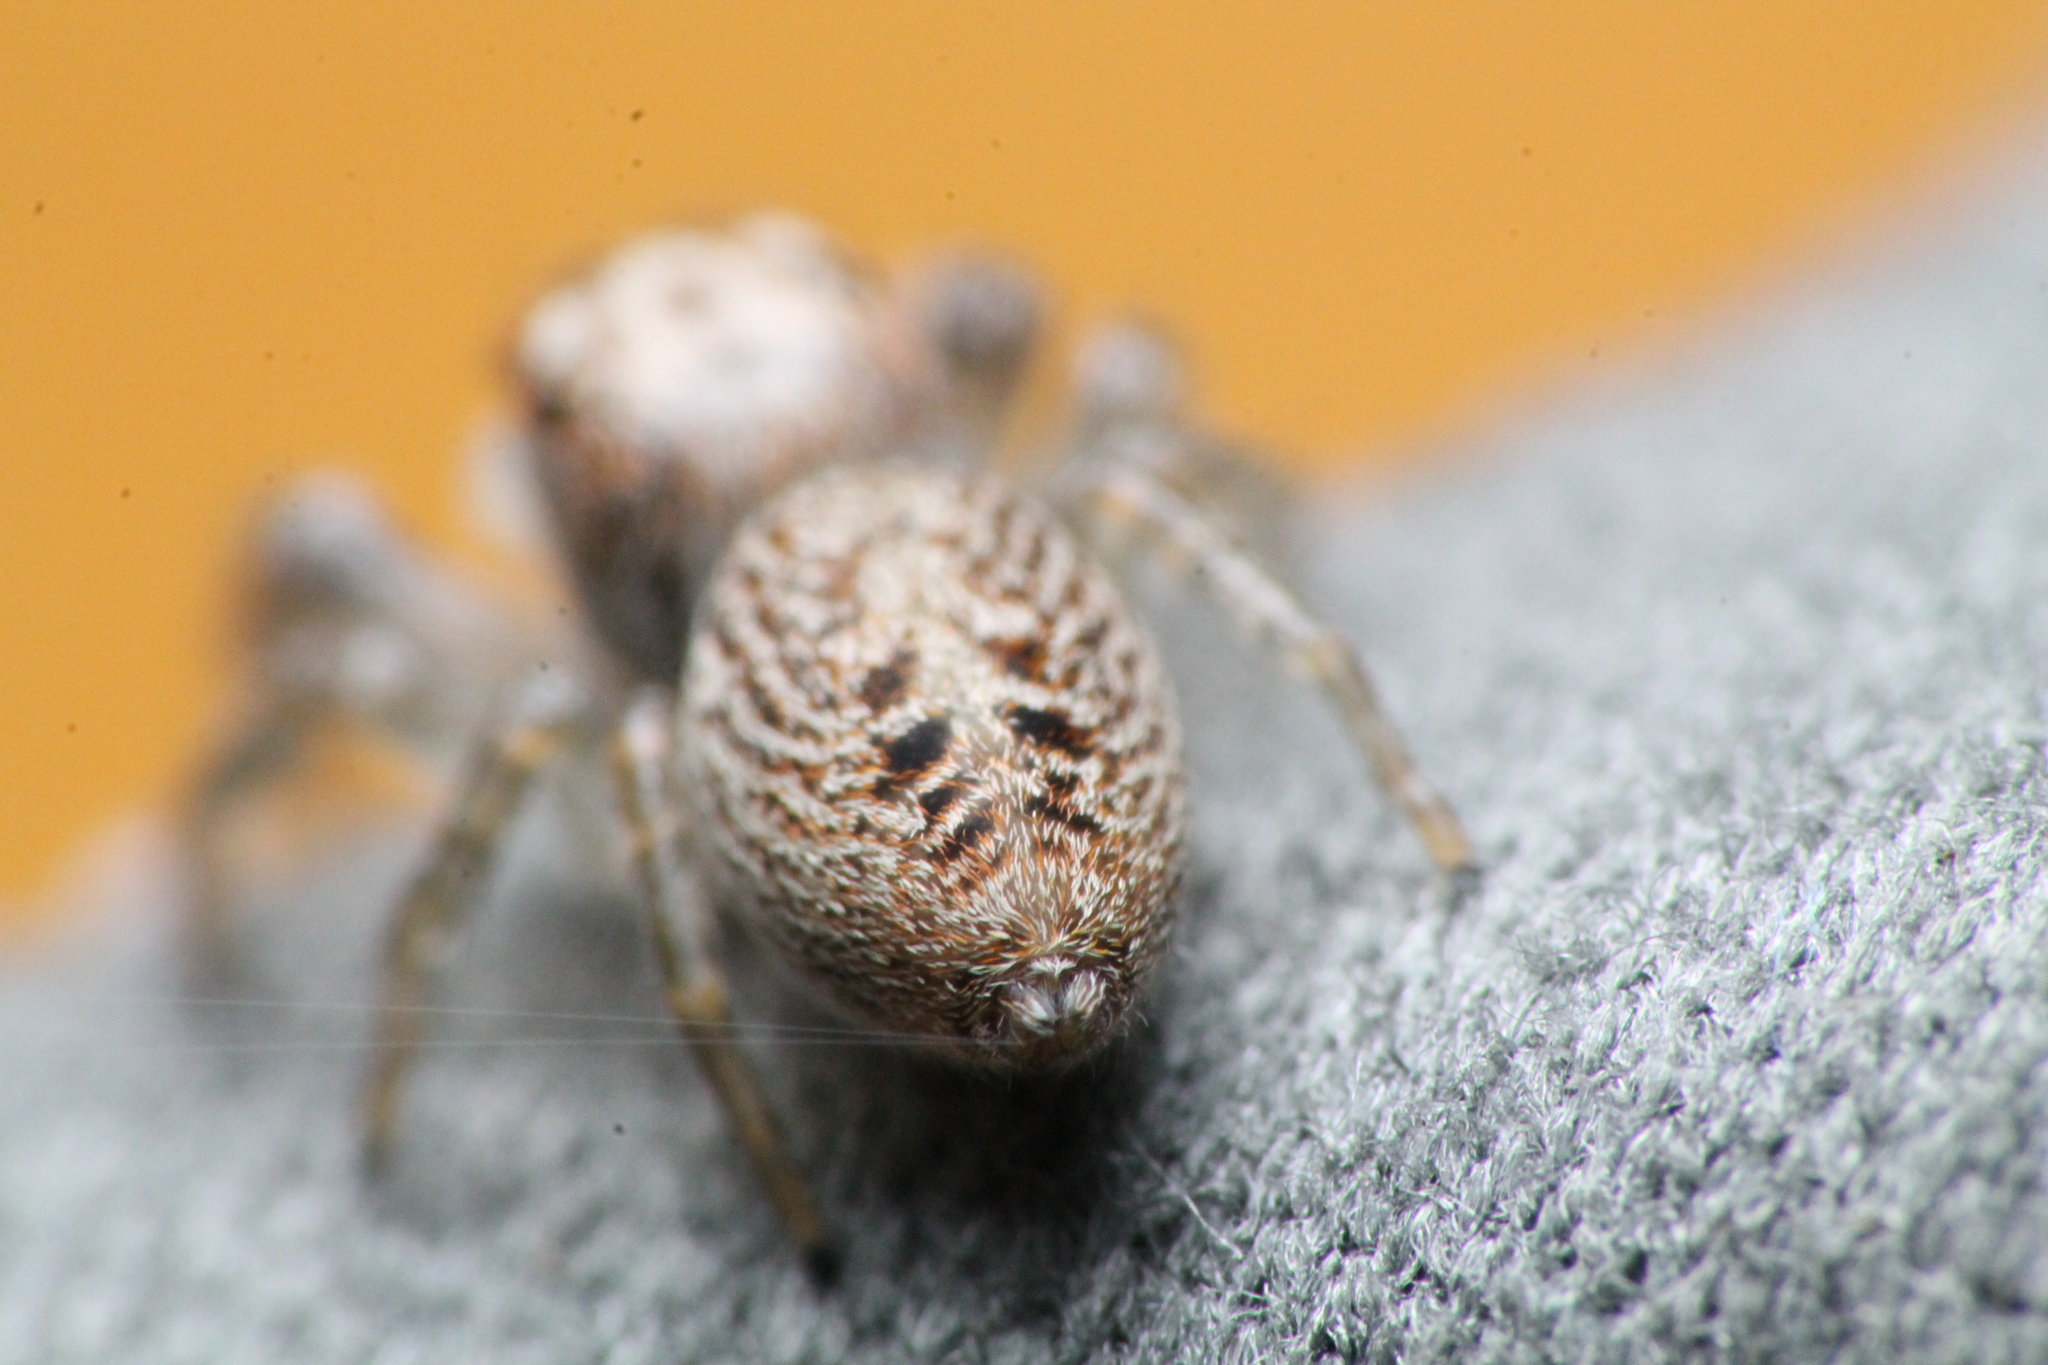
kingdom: Animalia
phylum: Arthropoda
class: Arachnida
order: Araneae
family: Salticidae
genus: Opisthoncus
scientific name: Opisthoncus polyphemus
